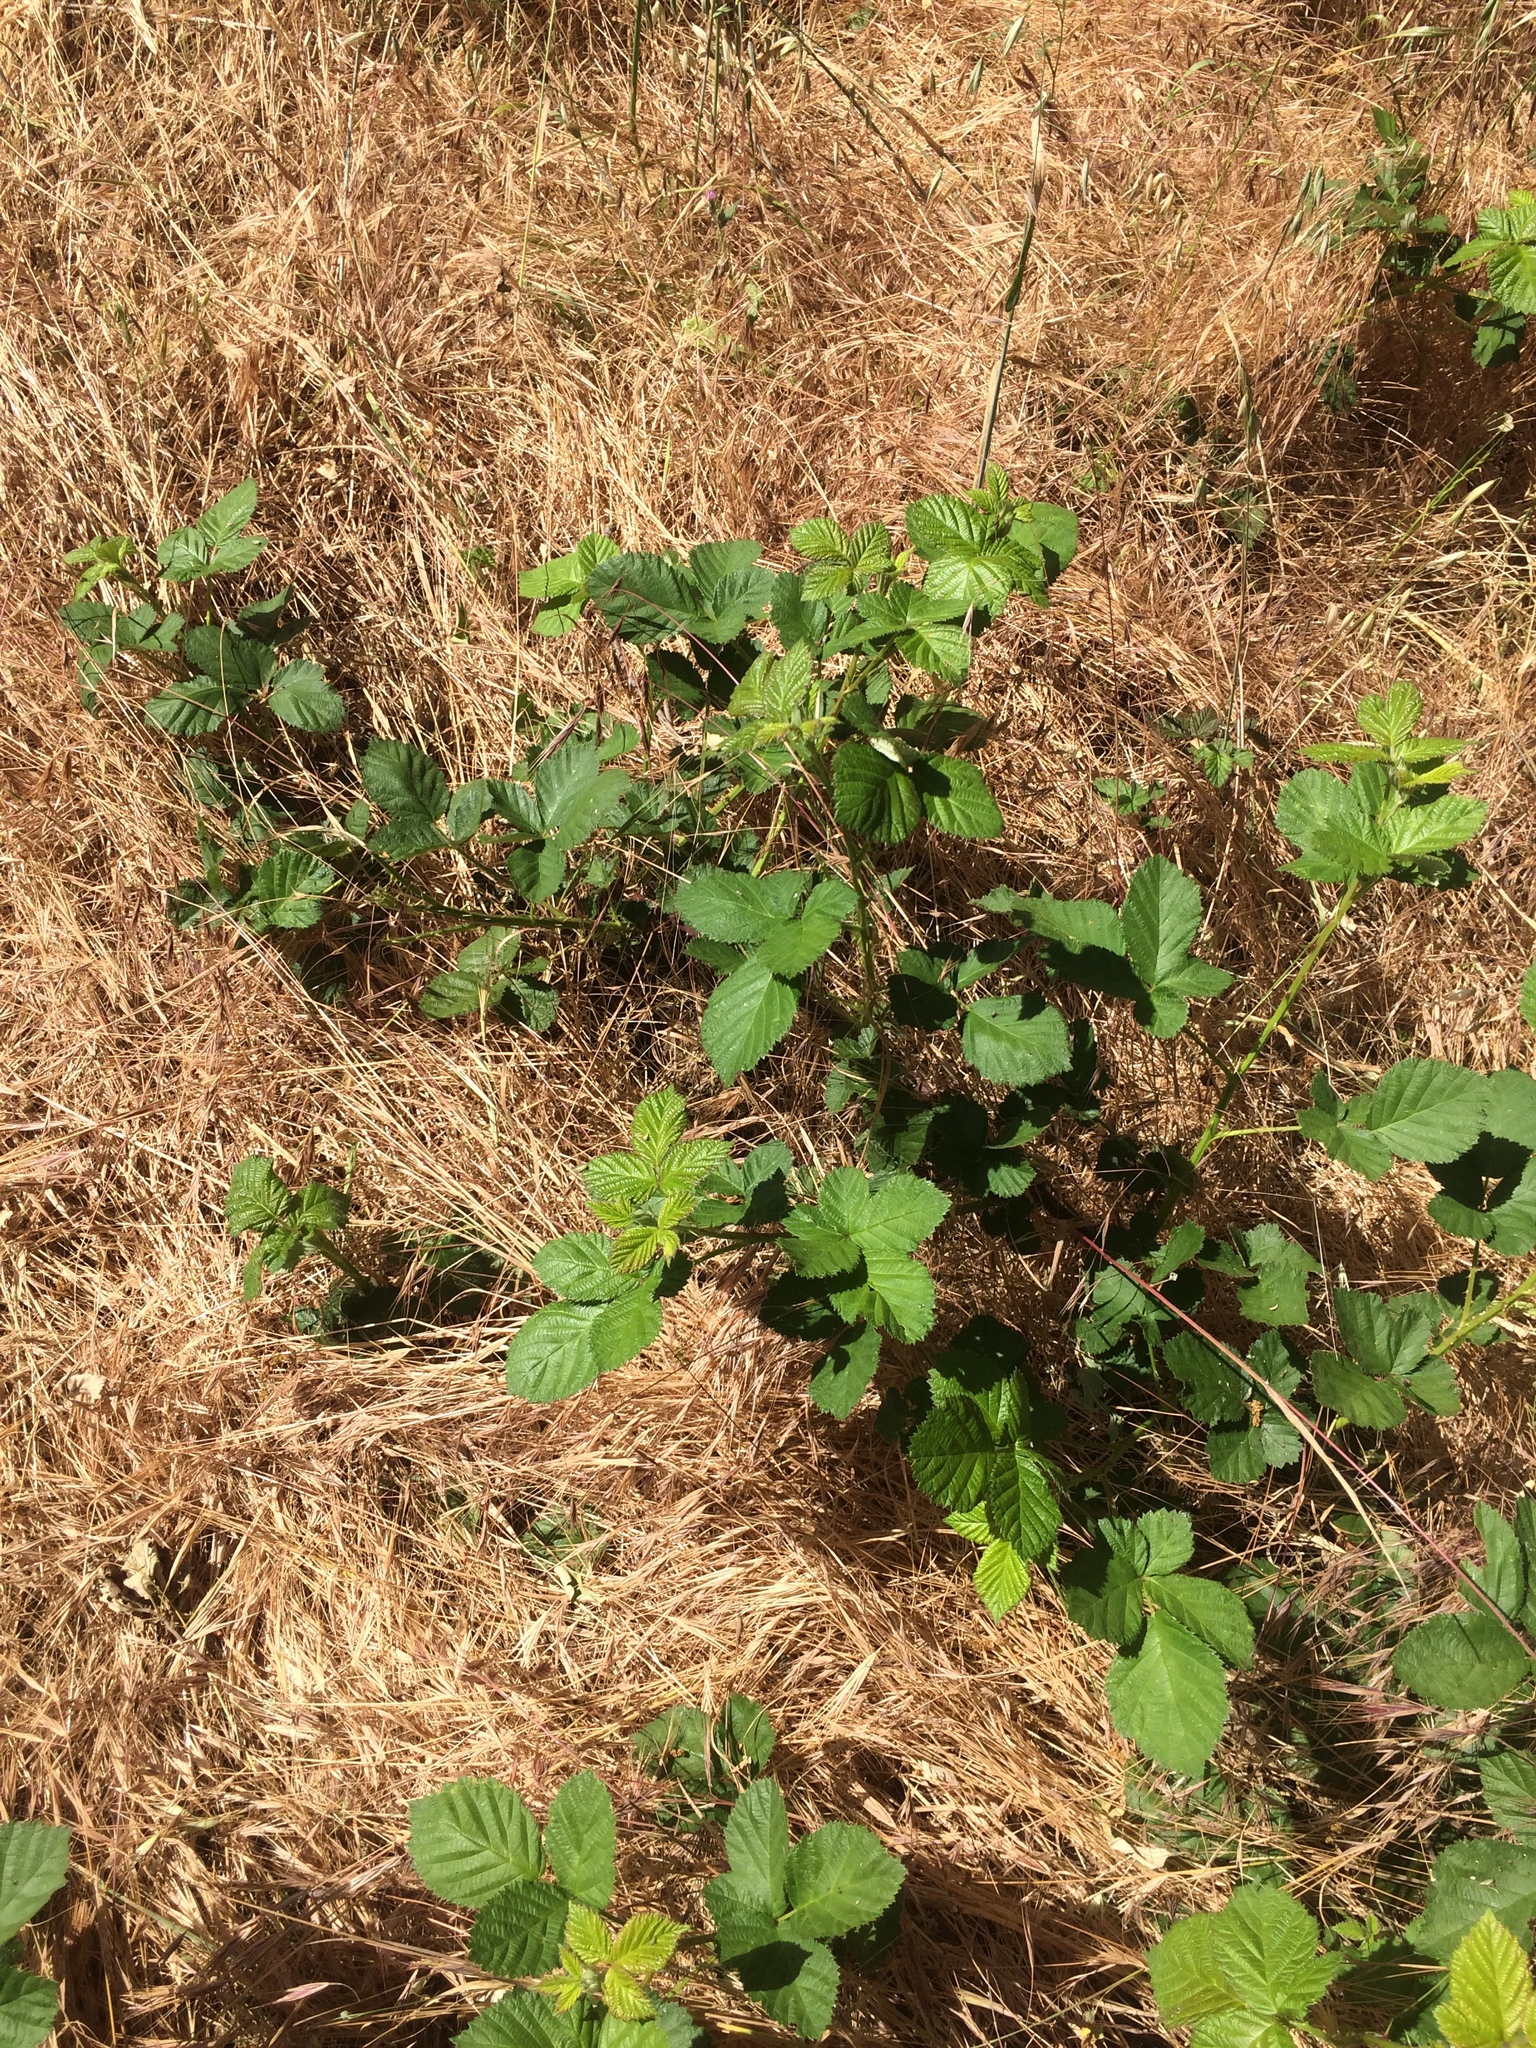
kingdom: Plantae
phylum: Tracheophyta
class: Magnoliopsida
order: Rosales
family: Rosaceae
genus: Rubus
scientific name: Rubus armeniacus
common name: Himalayan blackberry
